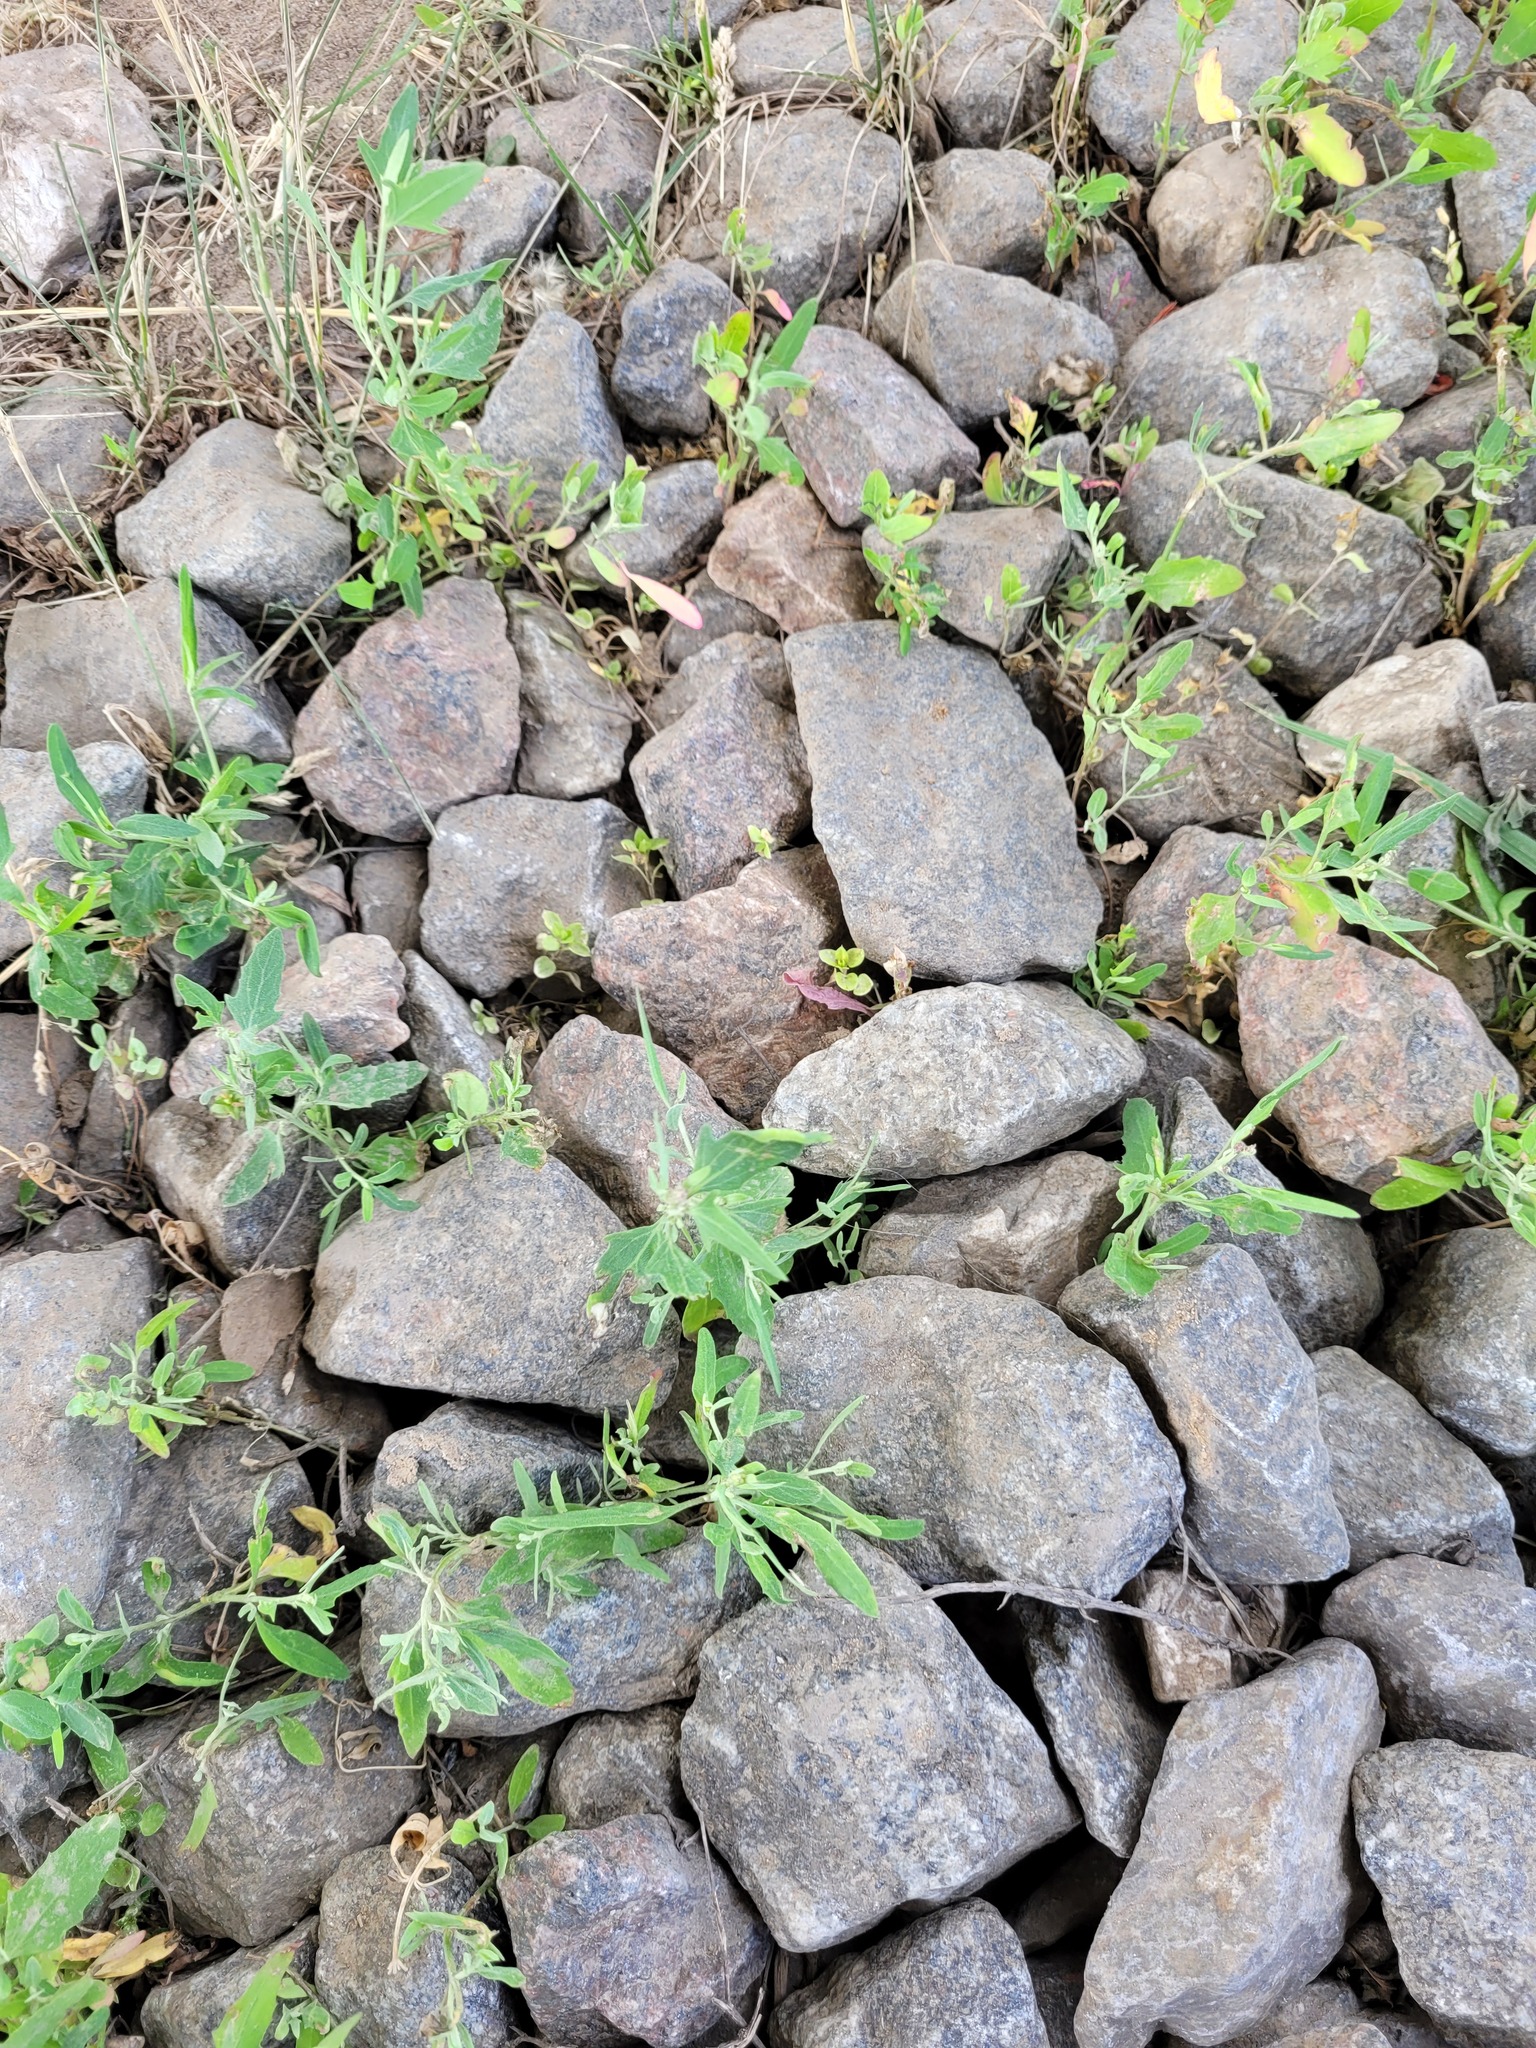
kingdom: Plantae
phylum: Tracheophyta
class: Magnoliopsida
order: Caryophyllales
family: Amaranthaceae
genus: Atriplex
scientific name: Atriplex patula
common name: Common orache
